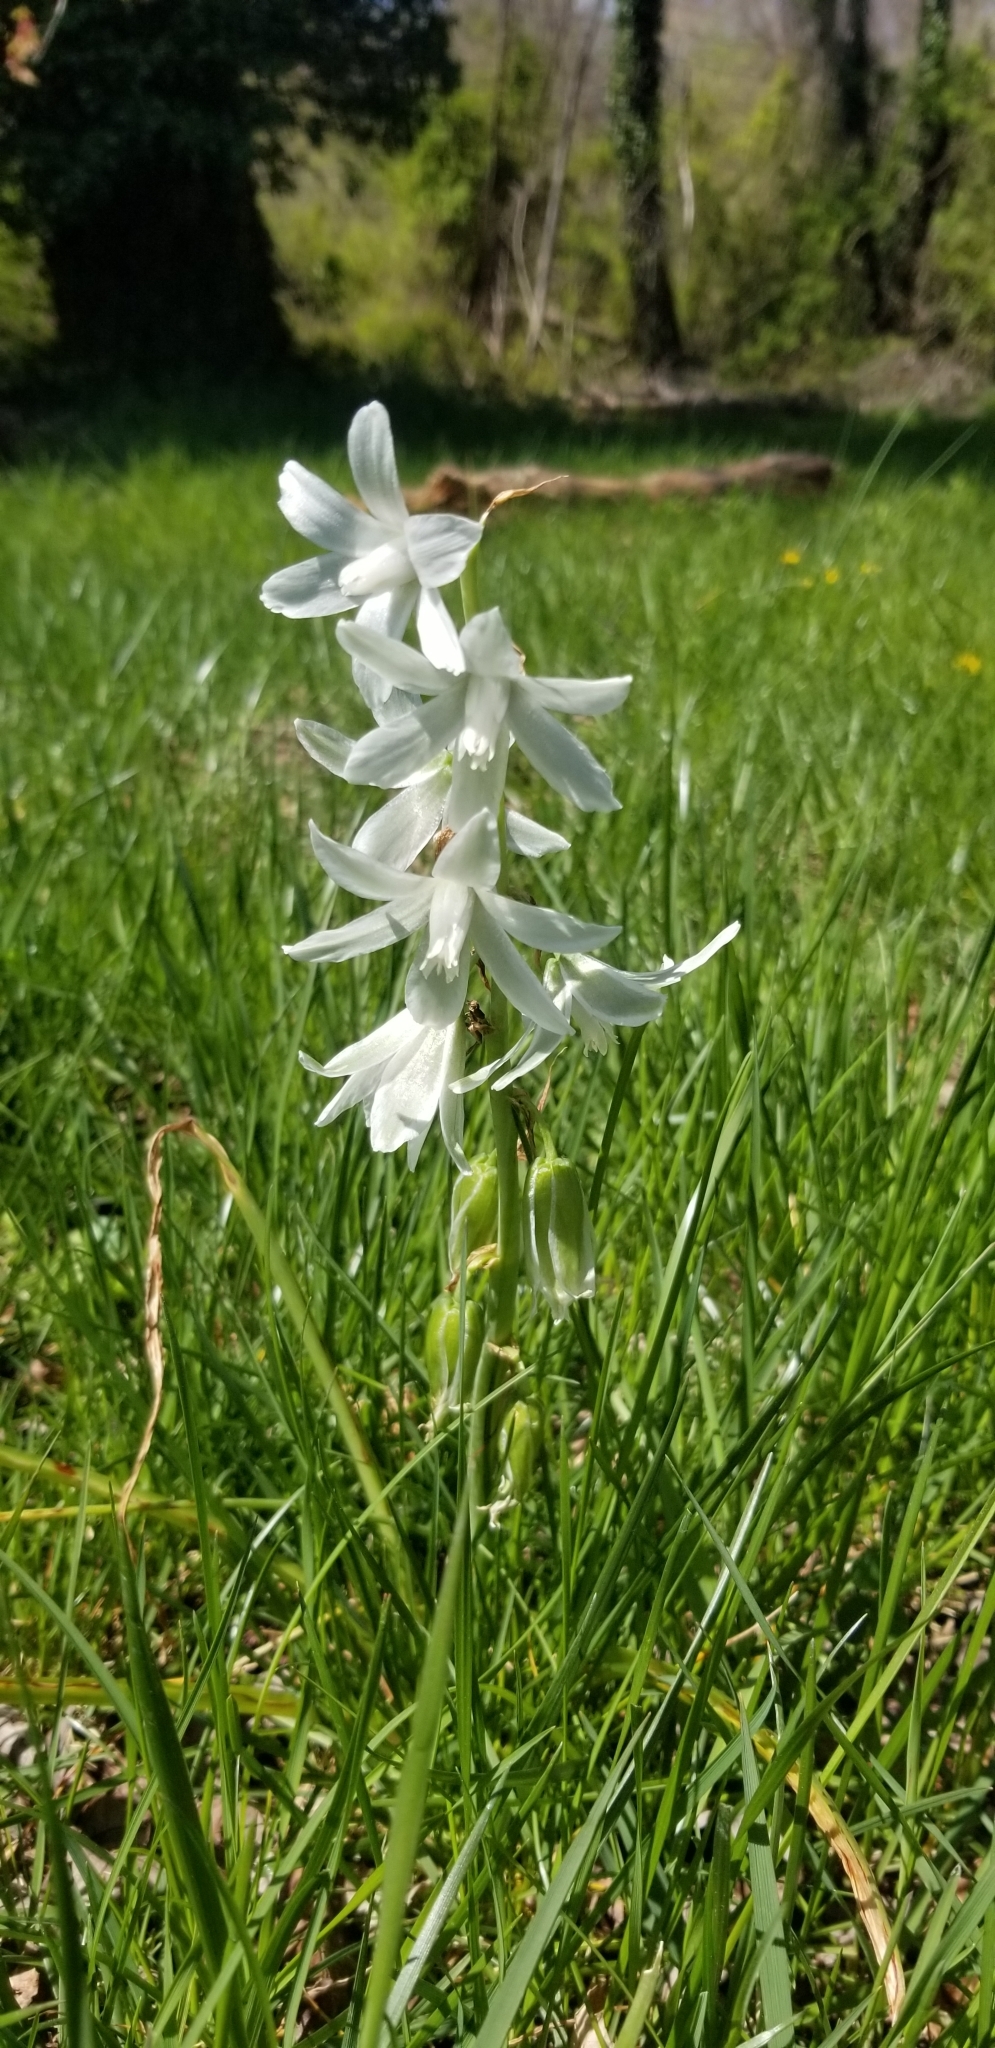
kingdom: Plantae
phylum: Tracheophyta
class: Liliopsida
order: Asparagales
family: Asparagaceae
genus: Ornithogalum
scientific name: Ornithogalum nutans
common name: Drooping star-of-bethlehem
